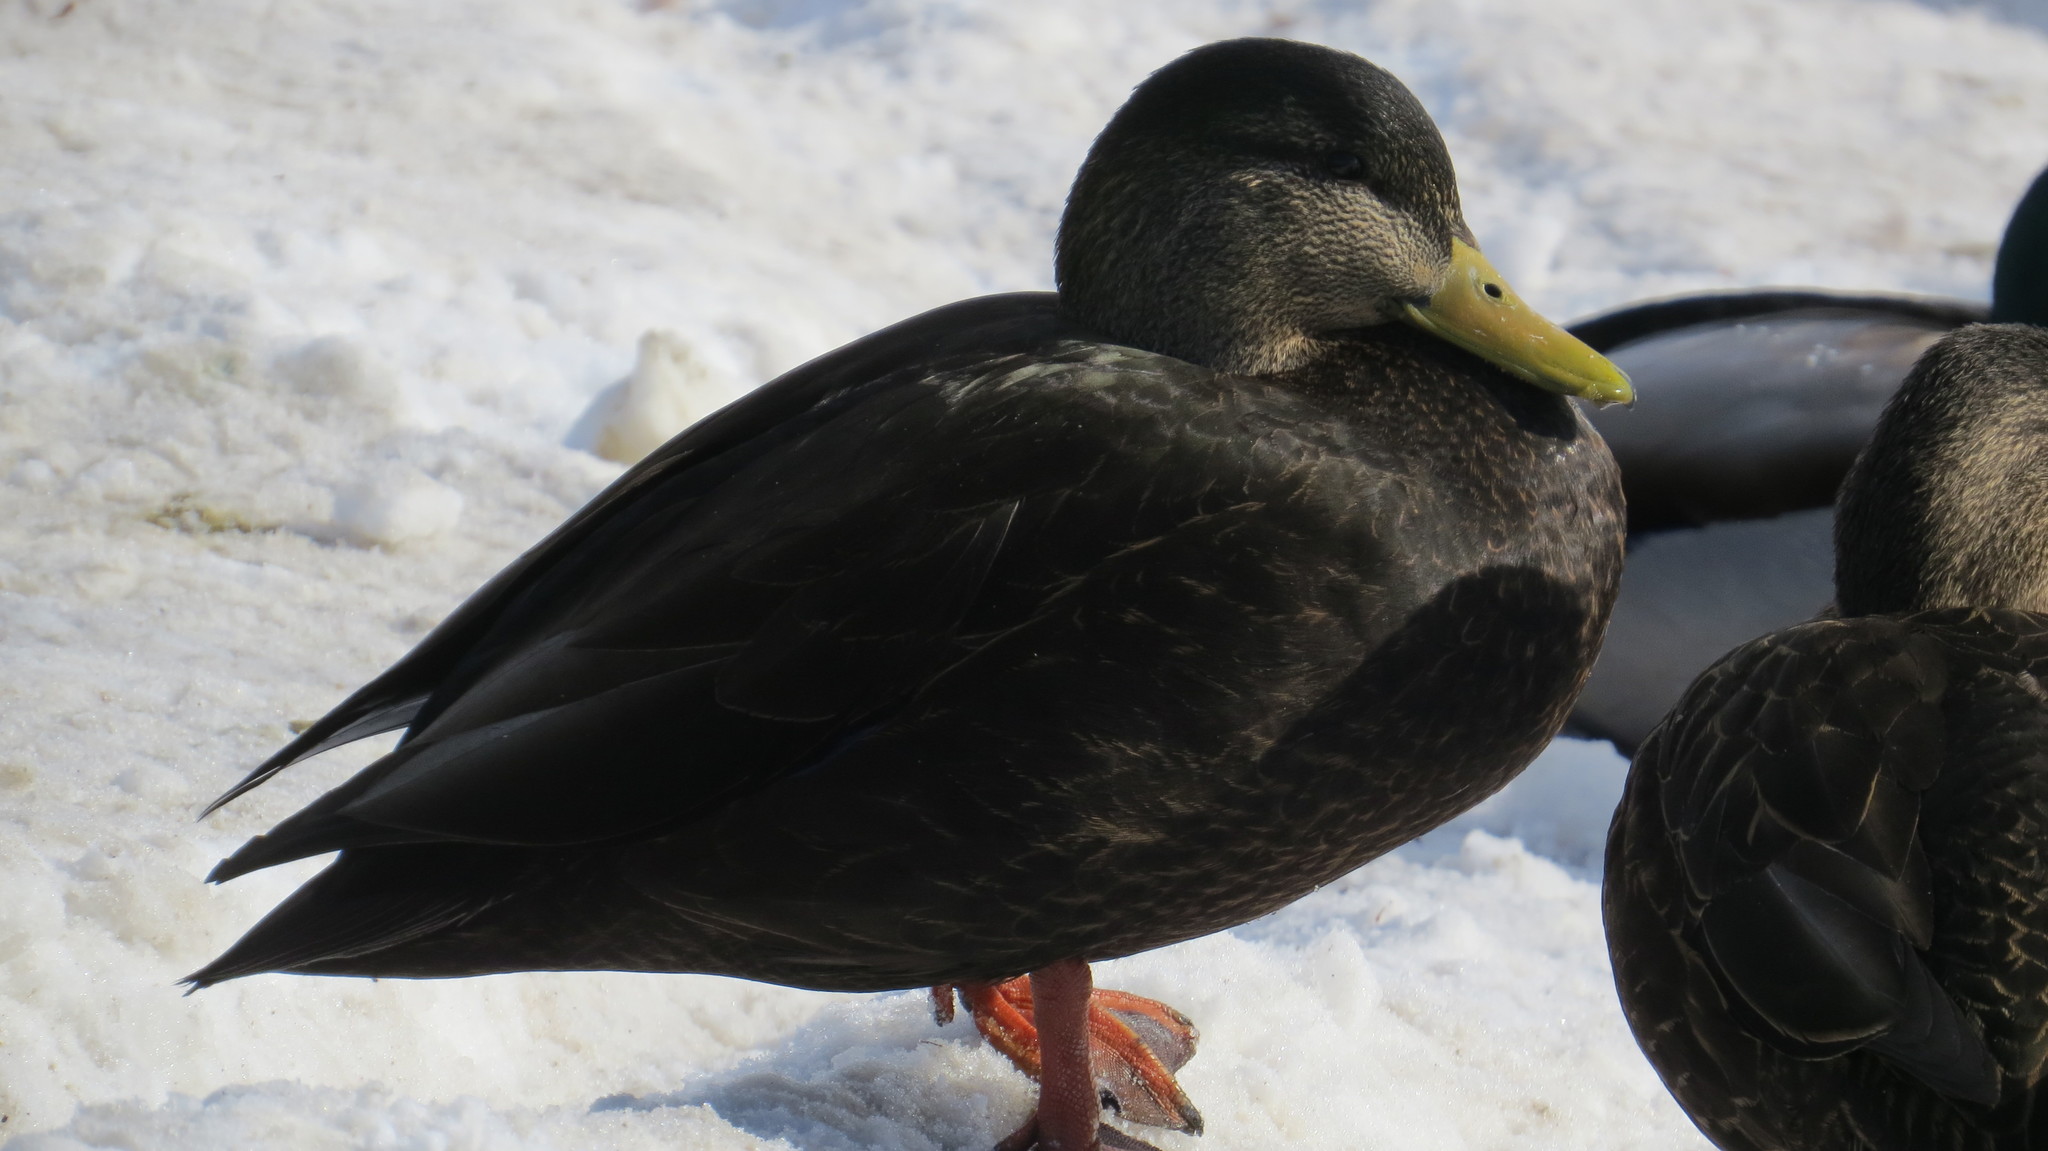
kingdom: Animalia
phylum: Chordata
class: Aves
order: Anseriformes
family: Anatidae
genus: Anas
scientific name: Anas rubripes
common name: American black duck
